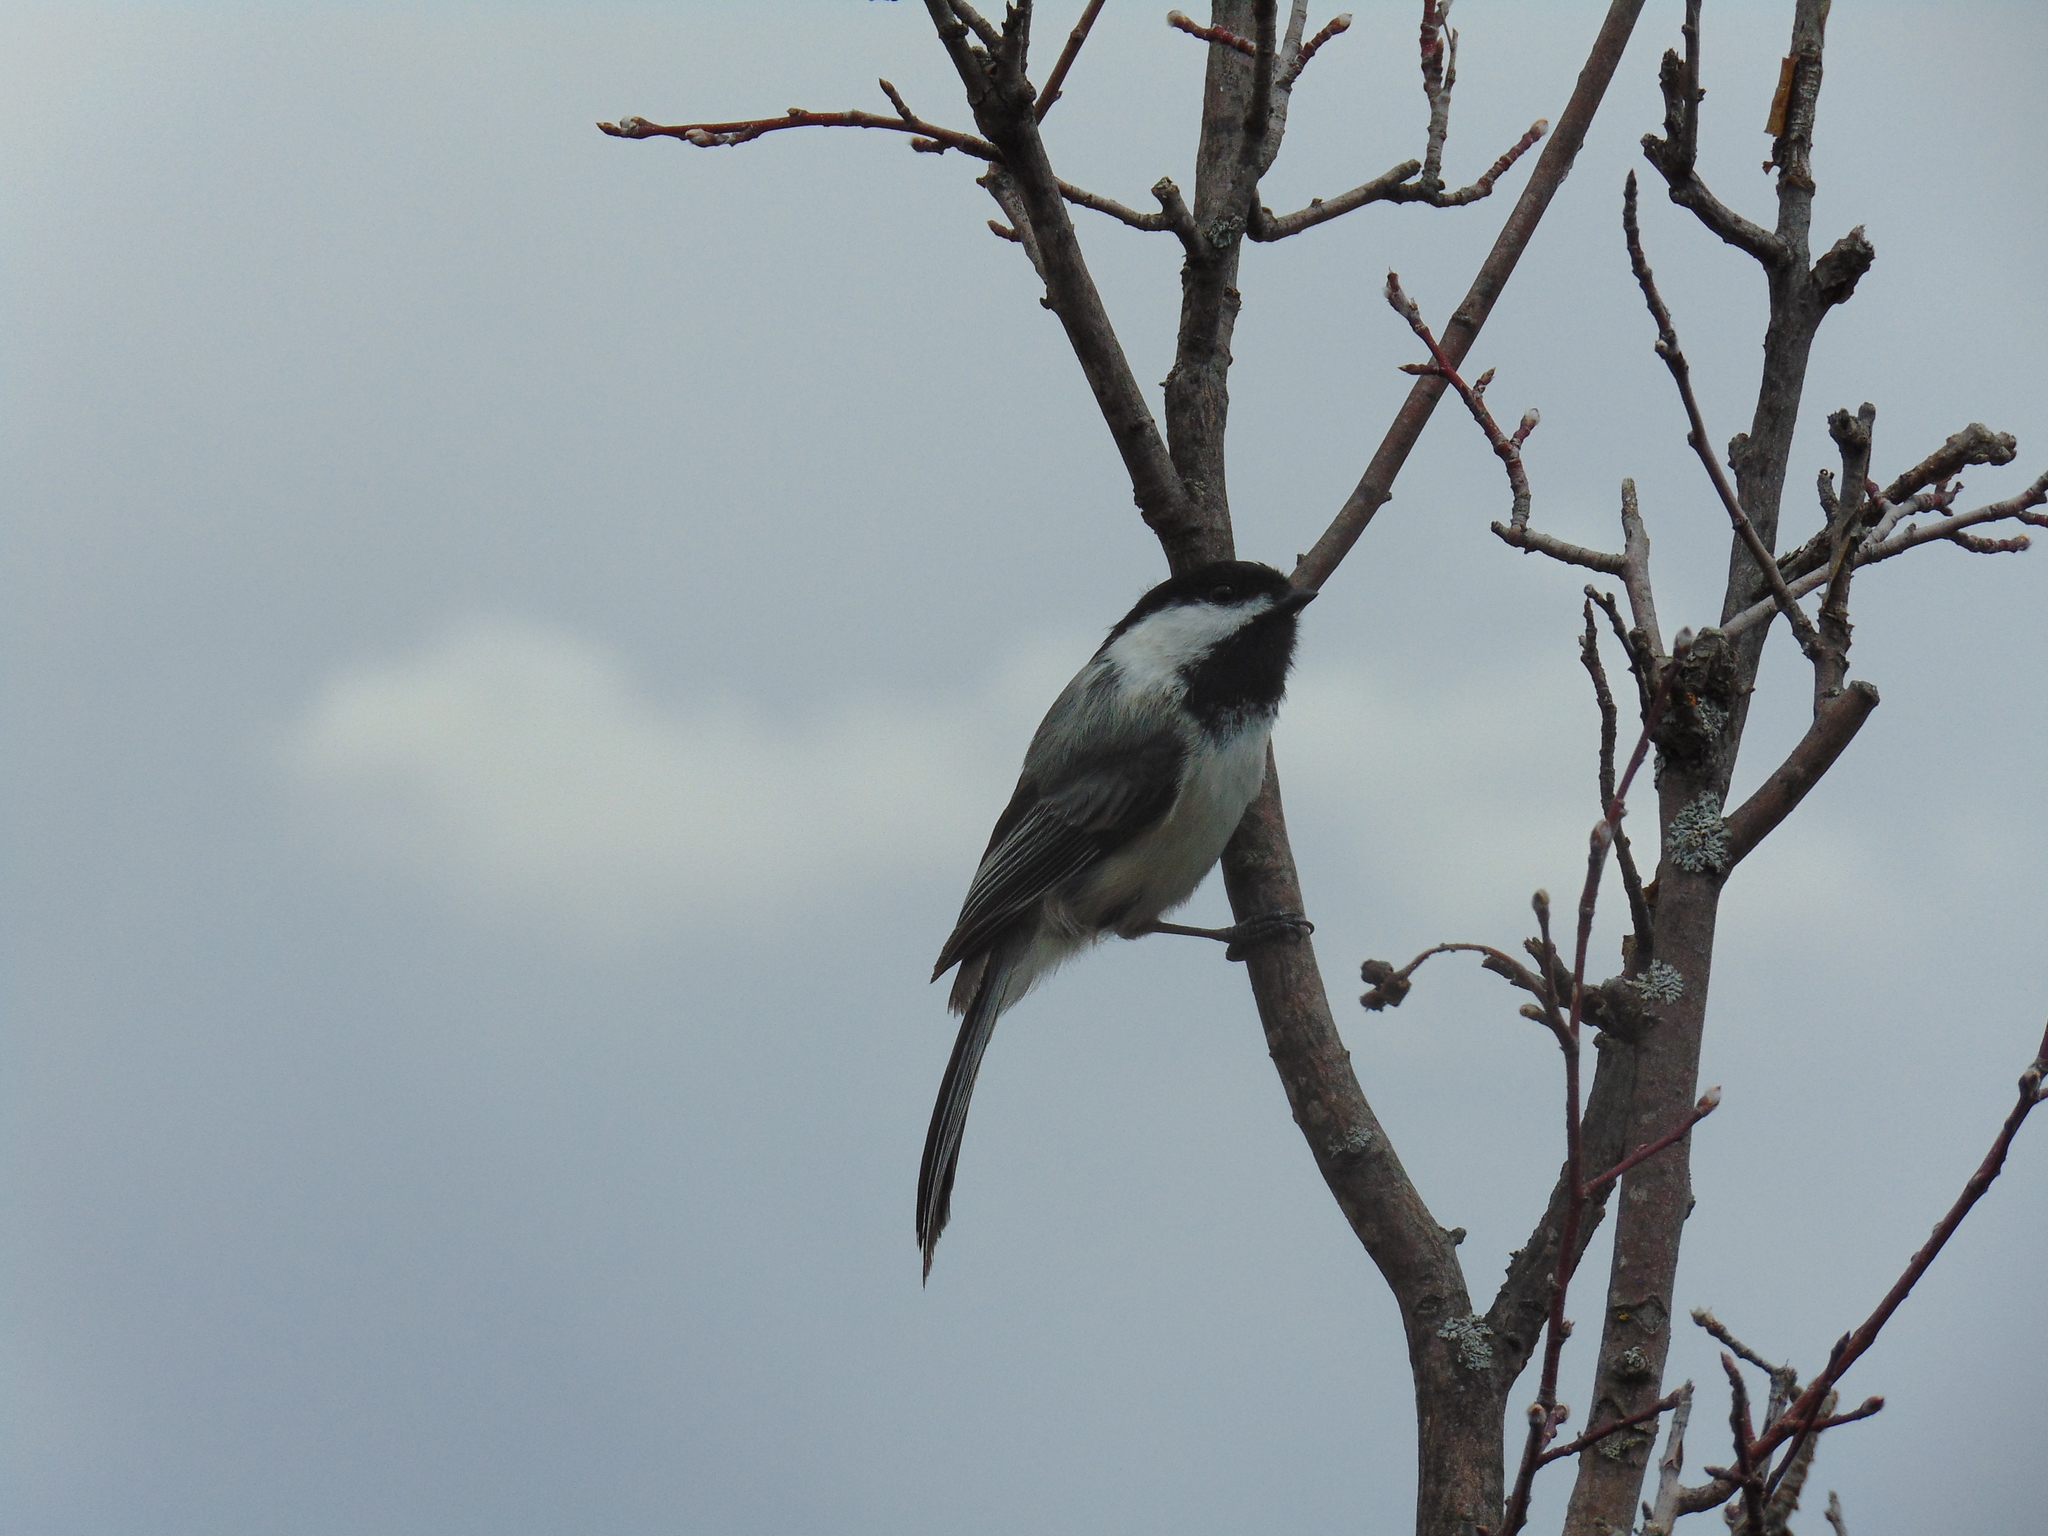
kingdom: Animalia
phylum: Chordata
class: Aves
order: Passeriformes
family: Paridae
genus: Poecile
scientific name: Poecile atricapillus
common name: Black-capped chickadee
